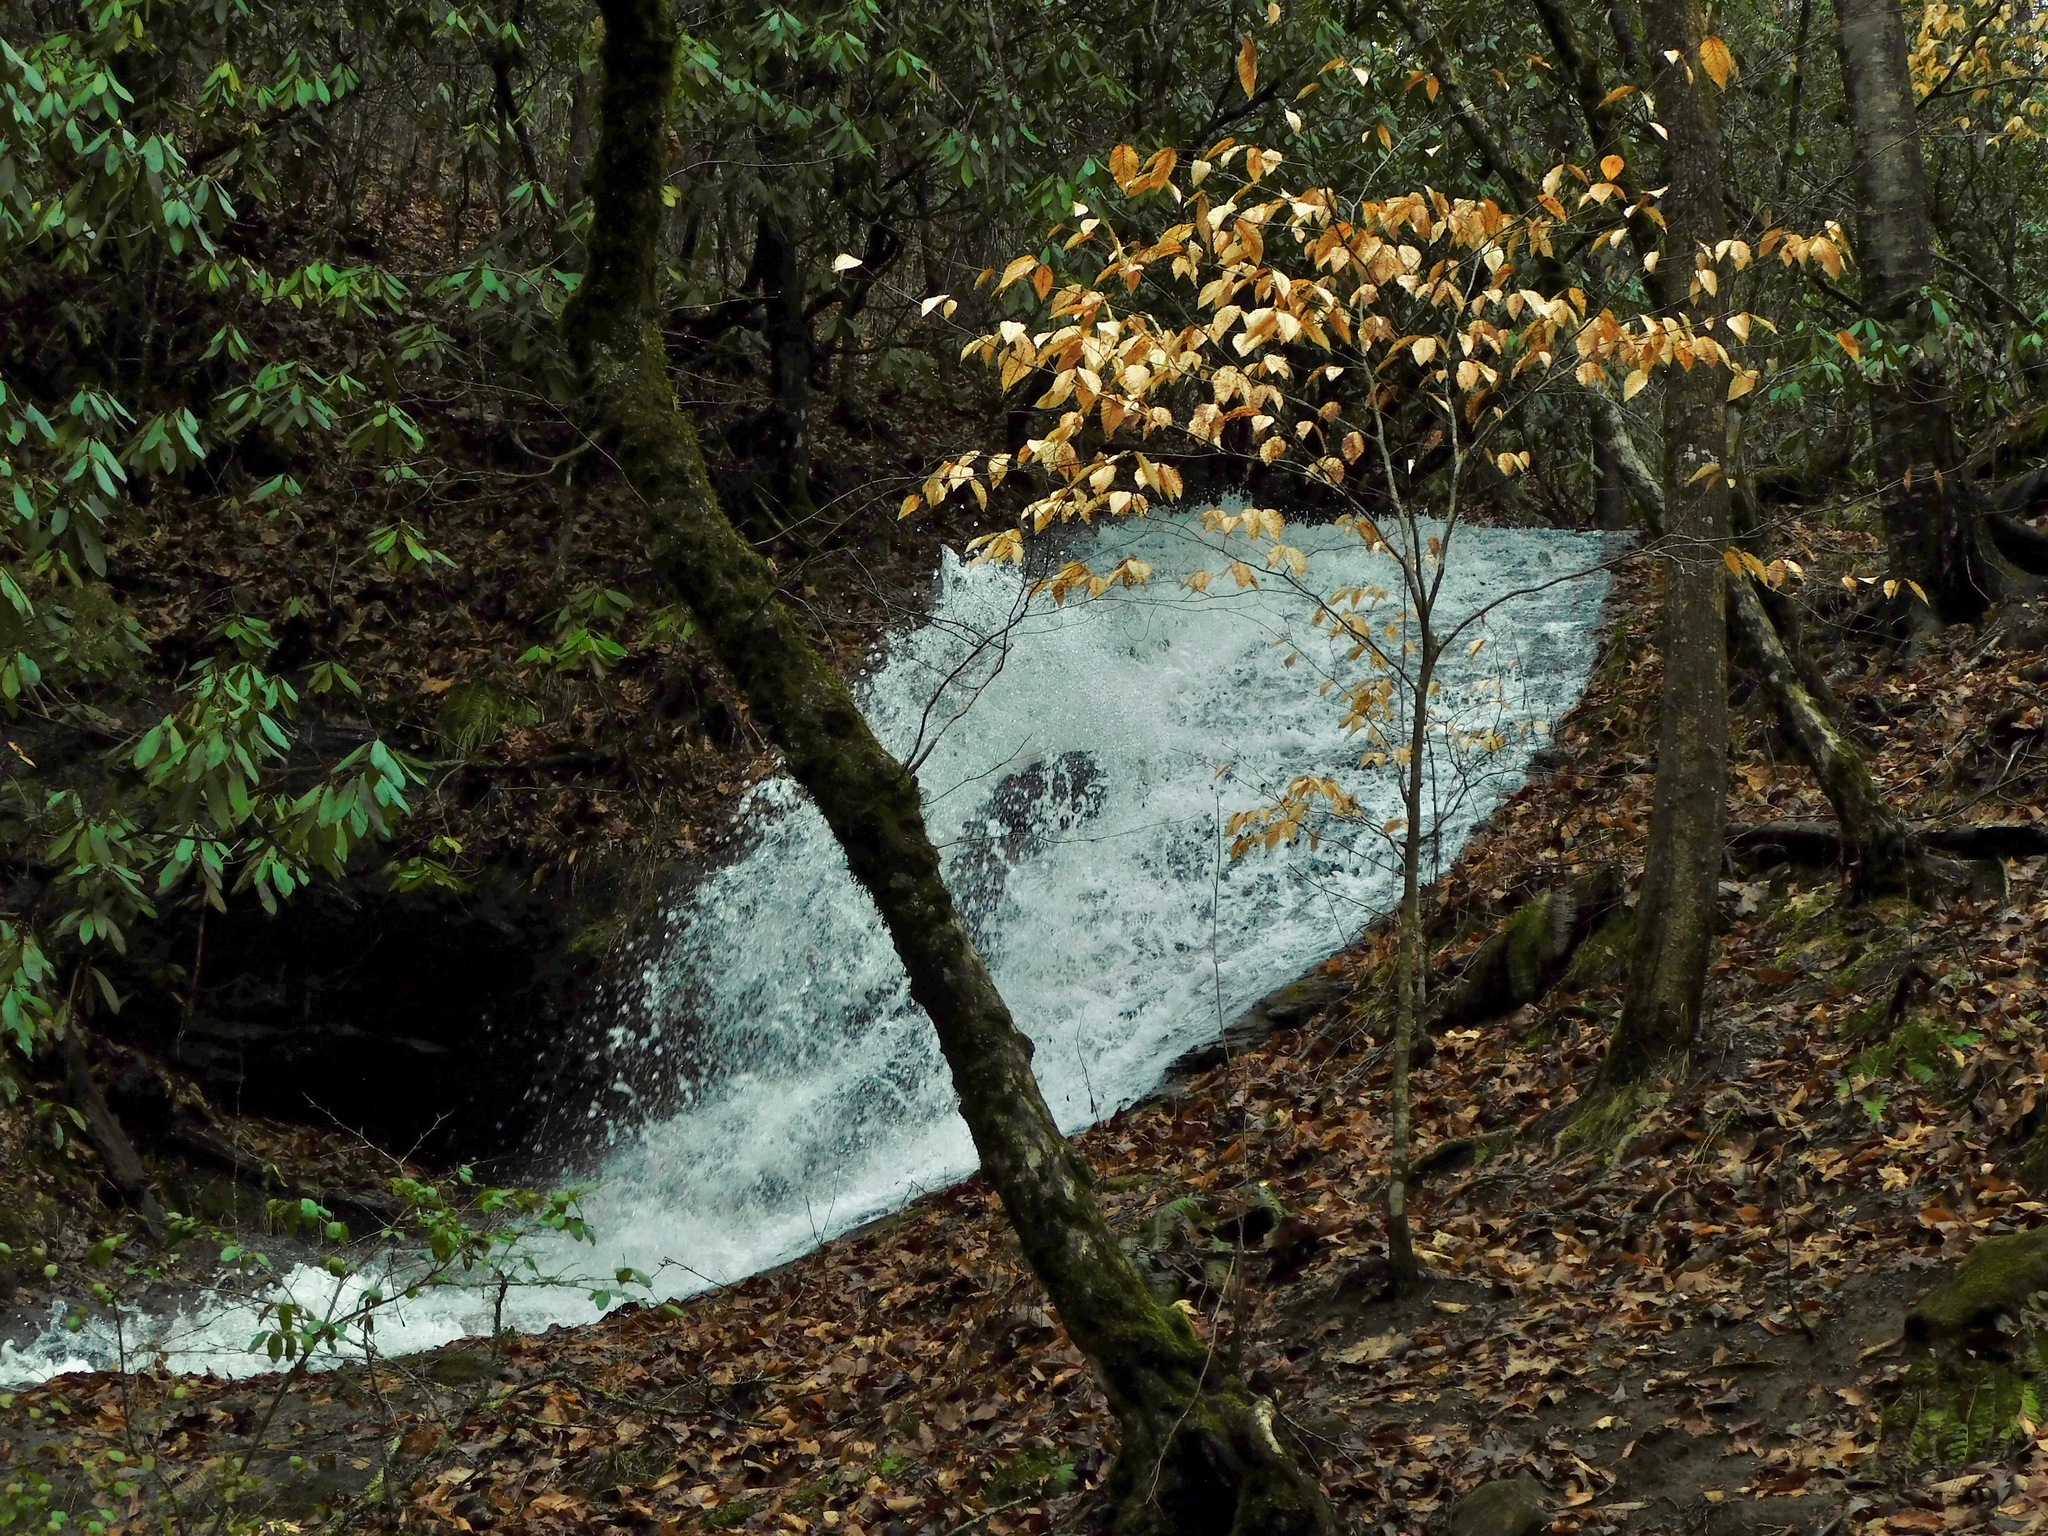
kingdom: Plantae
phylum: Tracheophyta
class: Magnoliopsida
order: Fagales
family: Fagaceae
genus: Fagus
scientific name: Fagus grandifolia
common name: American beech
